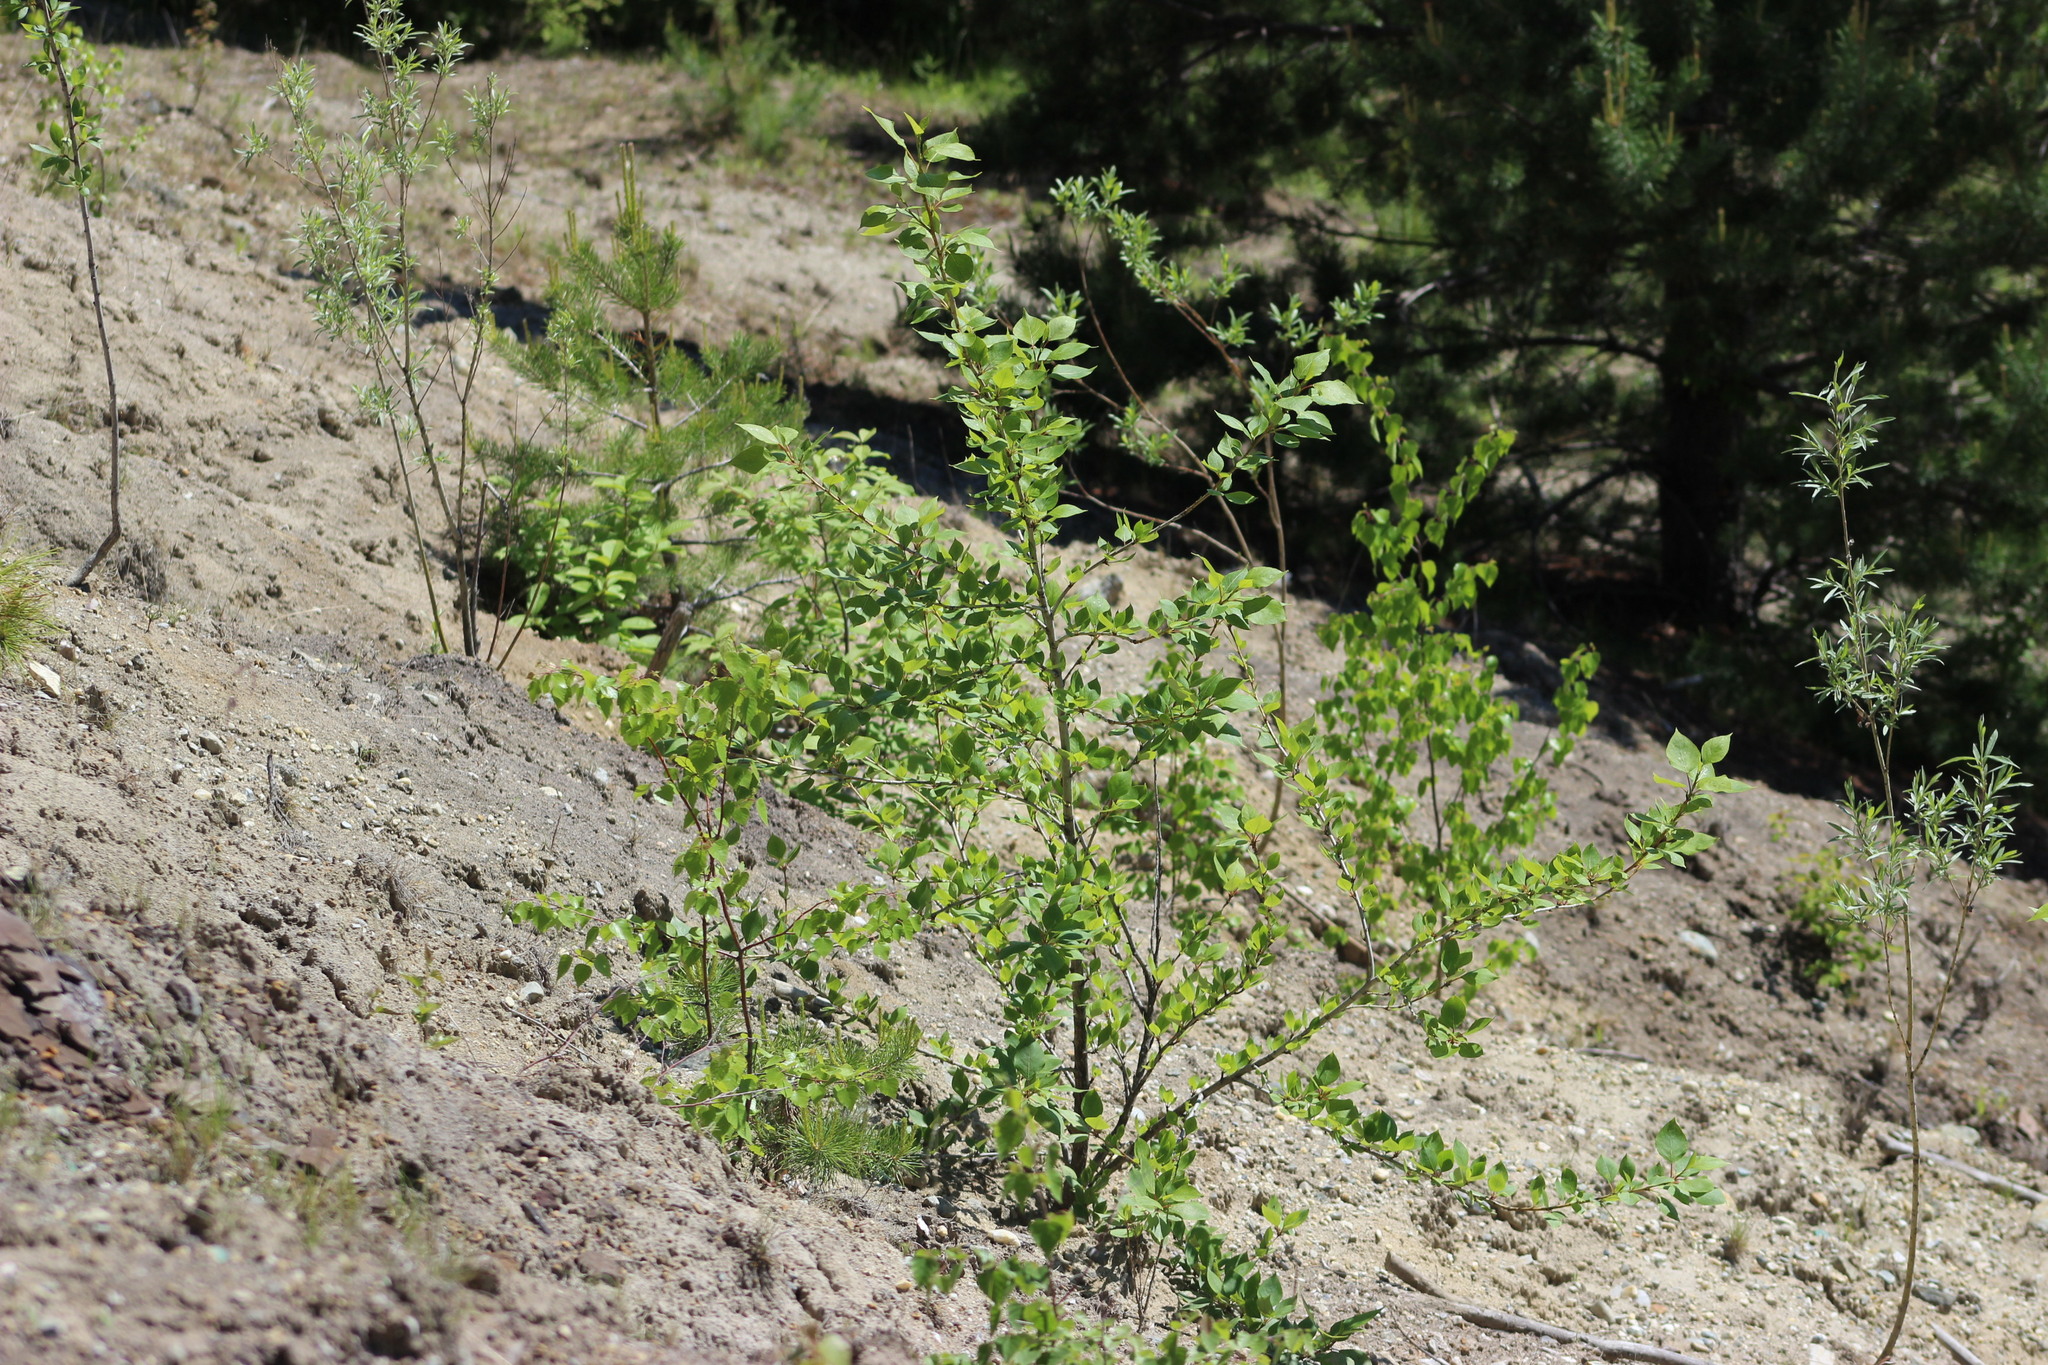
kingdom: Plantae
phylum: Tracheophyta
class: Magnoliopsida
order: Rosales
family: Rosaceae
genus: Cotoneaster
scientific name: Cotoneaster melanocarpus
